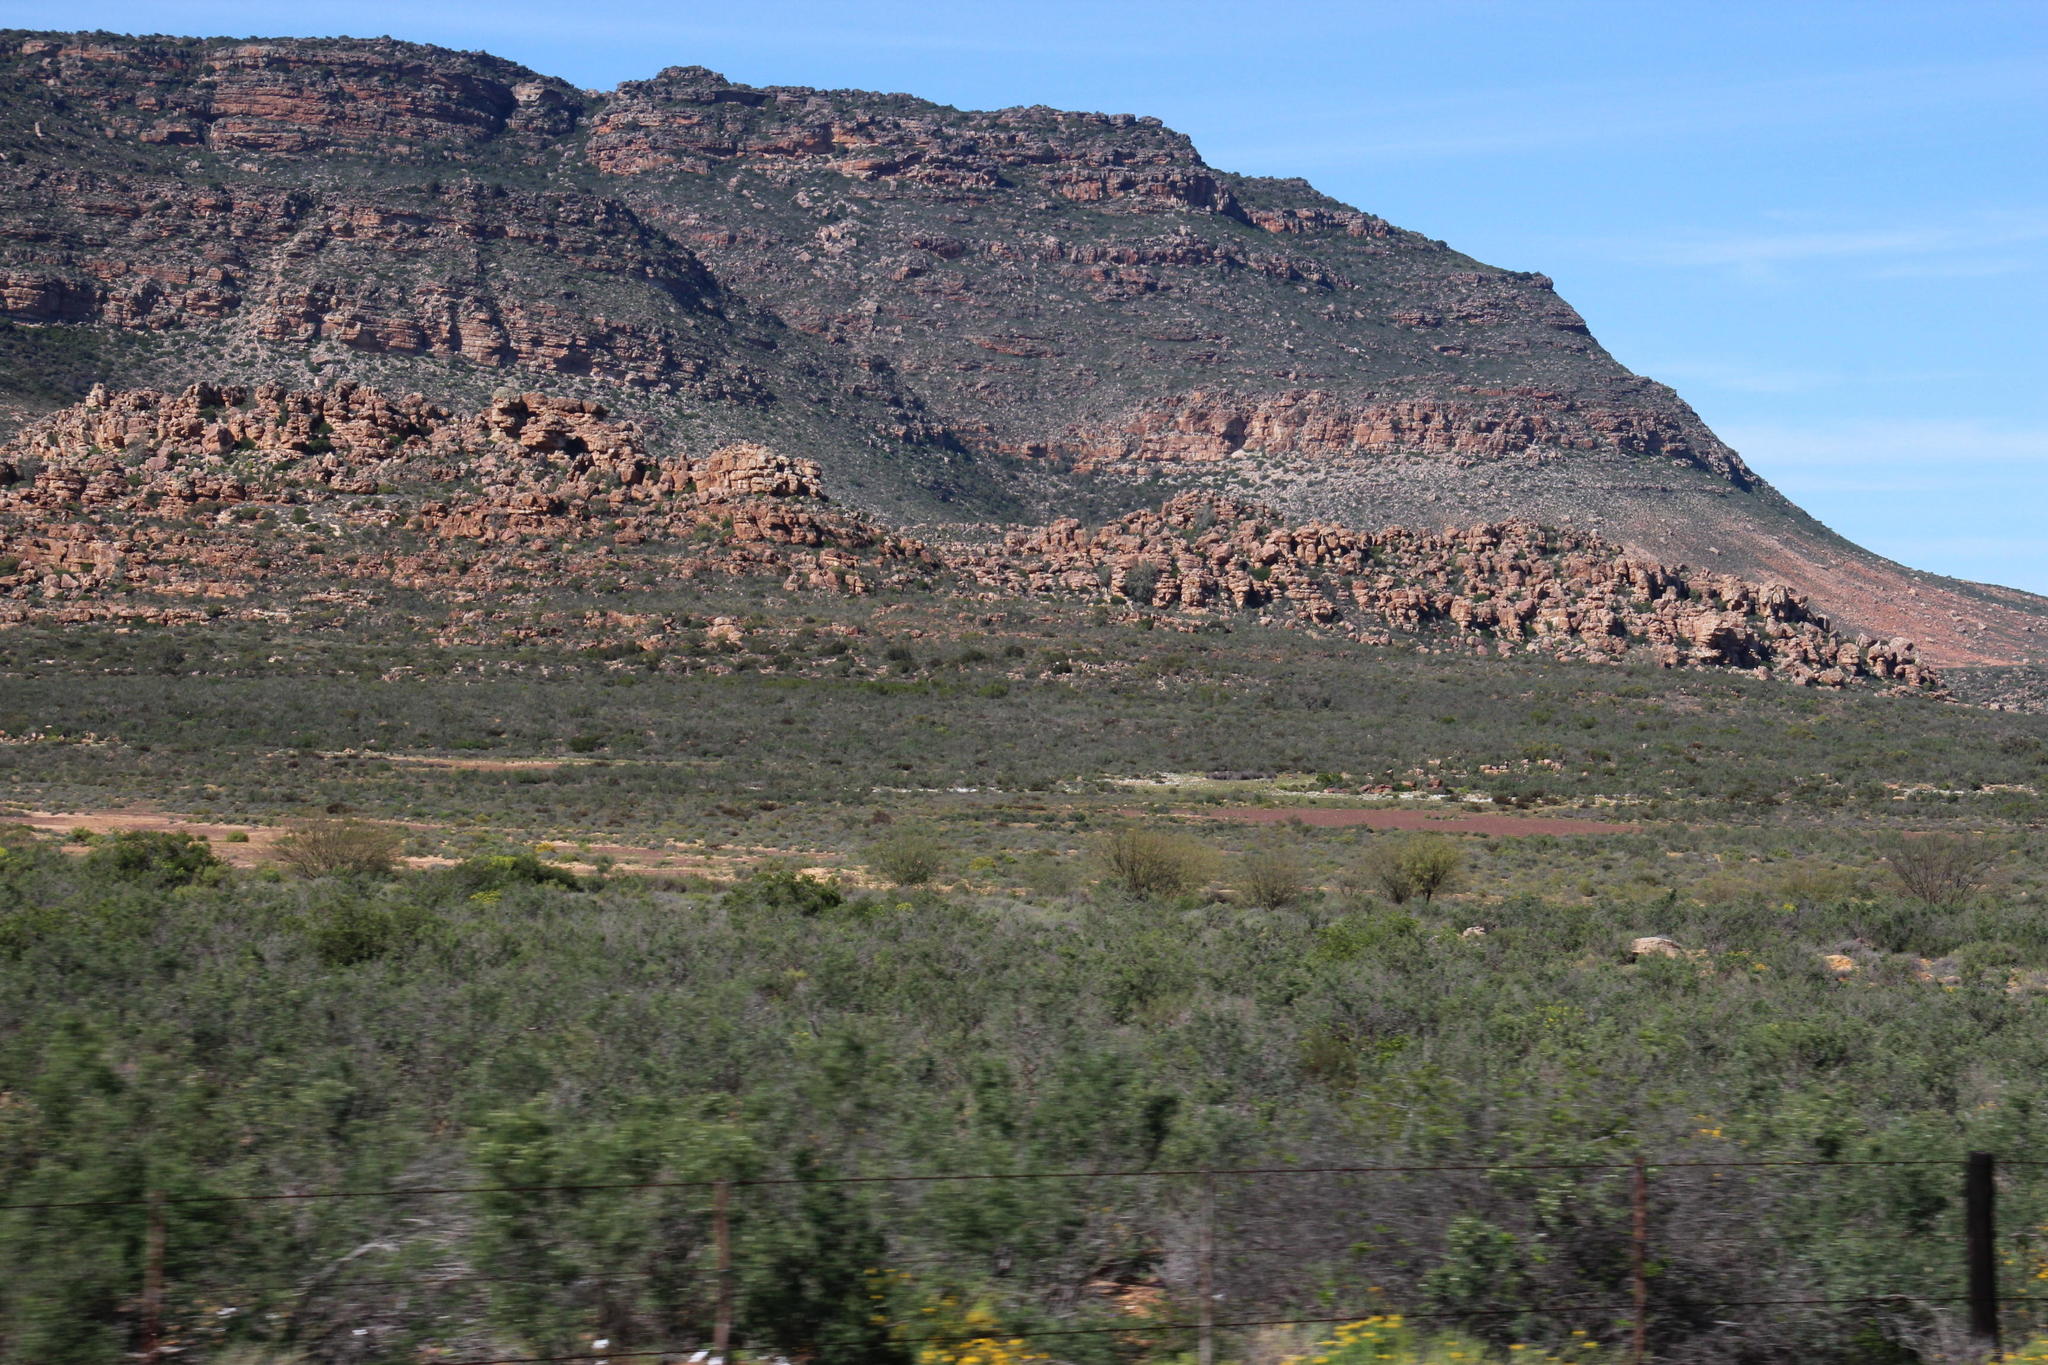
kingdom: Plantae
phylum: Tracheophyta
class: Magnoliopsida
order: Fabales
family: Fabaceae
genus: Prosopis
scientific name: Prosopis glandulosa
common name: Honey mesquite
